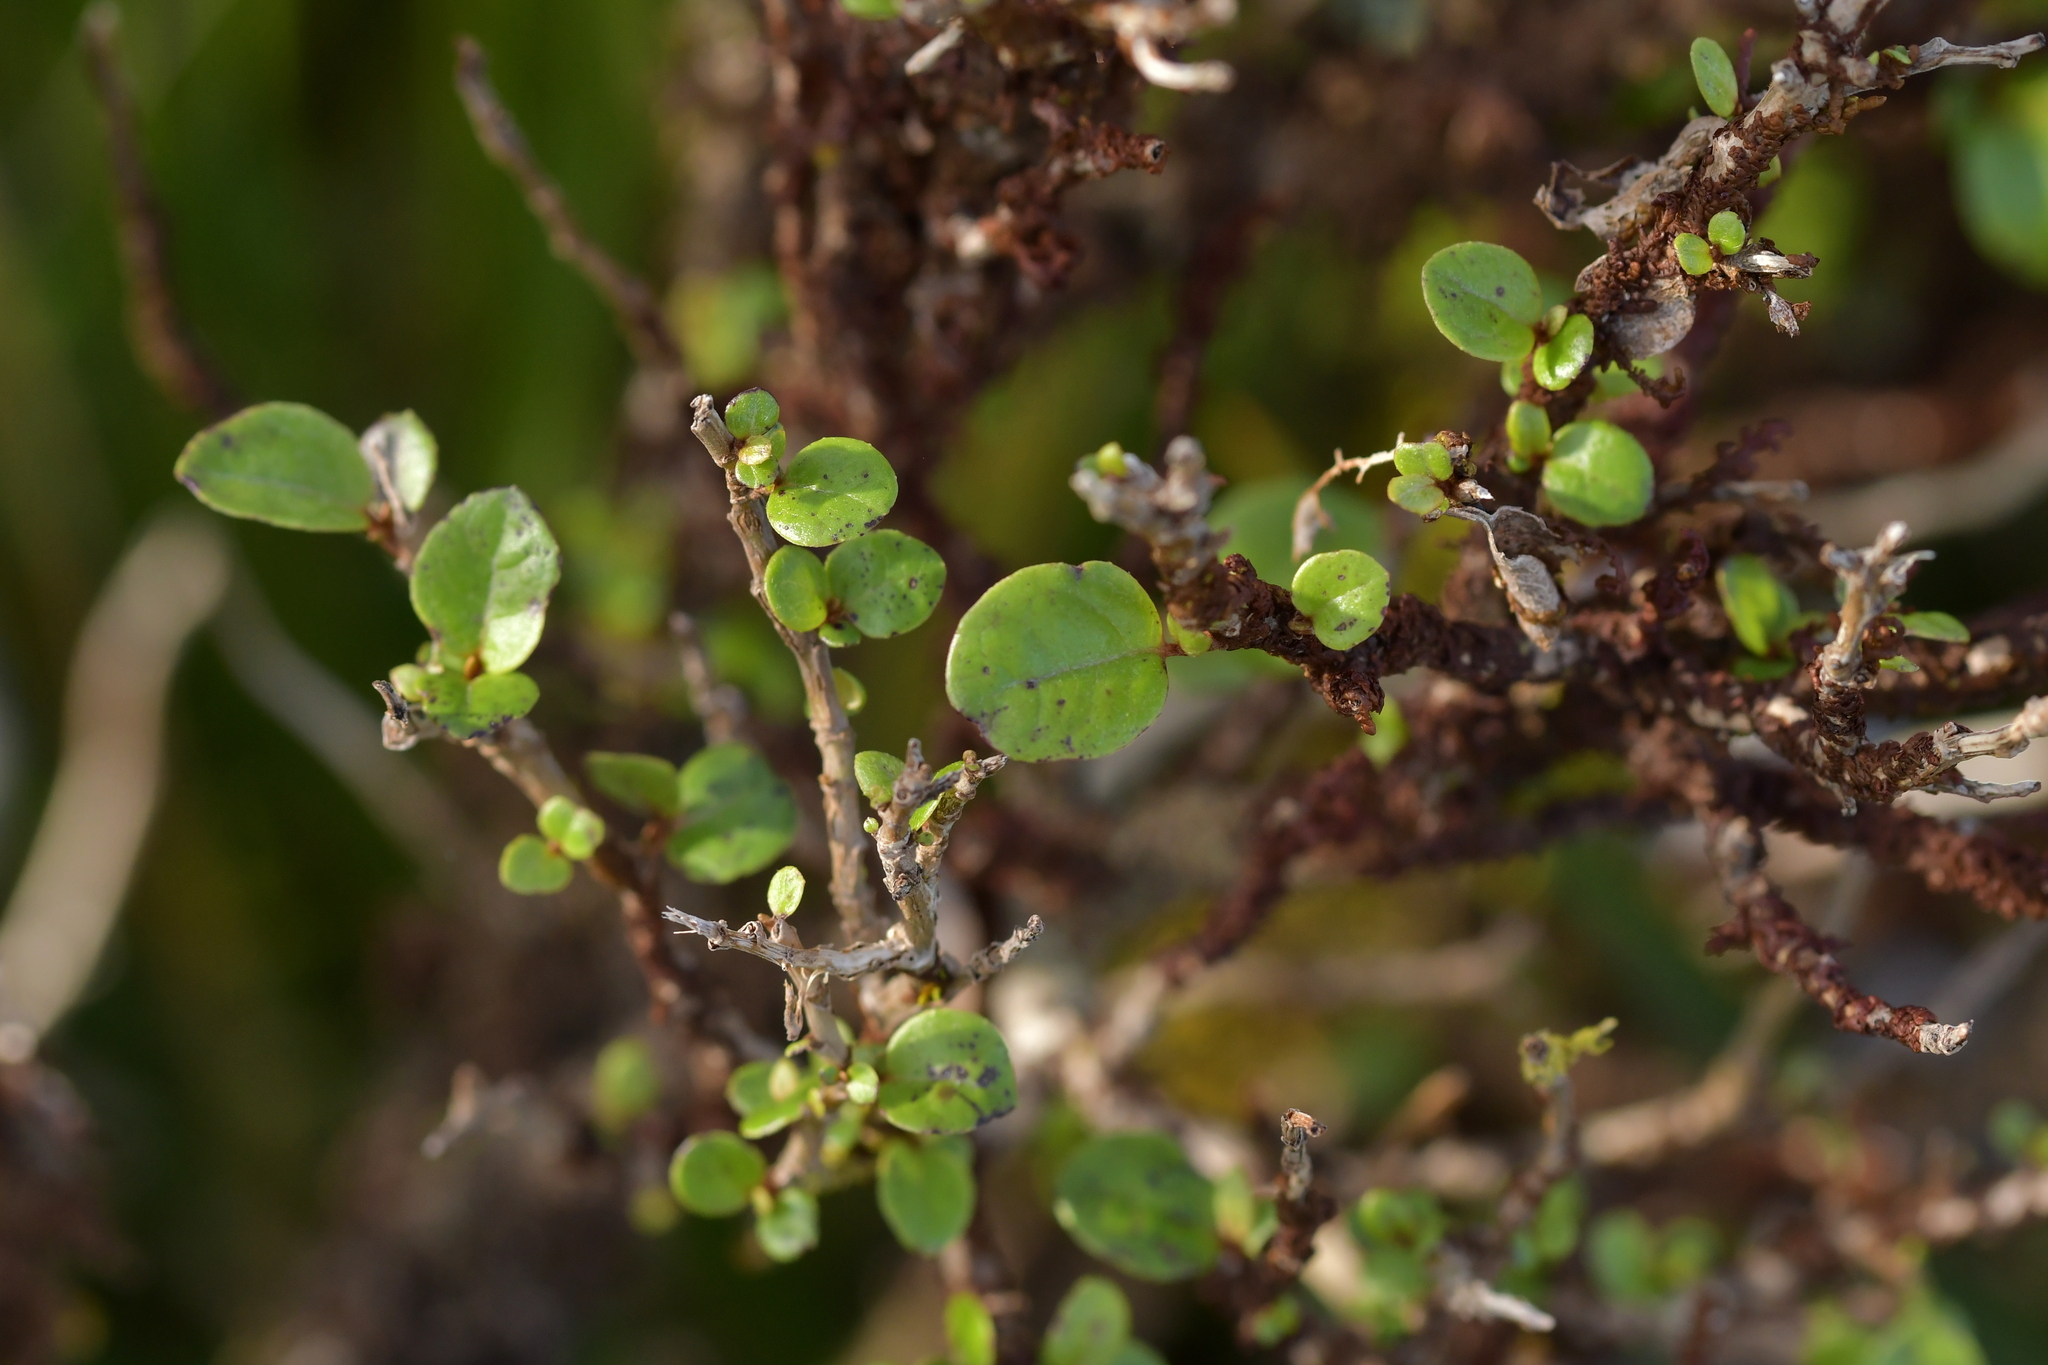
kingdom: Plantae
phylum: Tracheophyta
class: Magnoliopsida
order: Asterales
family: Asteraceae
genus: Olearia
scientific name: Olearia arborescens
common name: Glossy tree daisy
